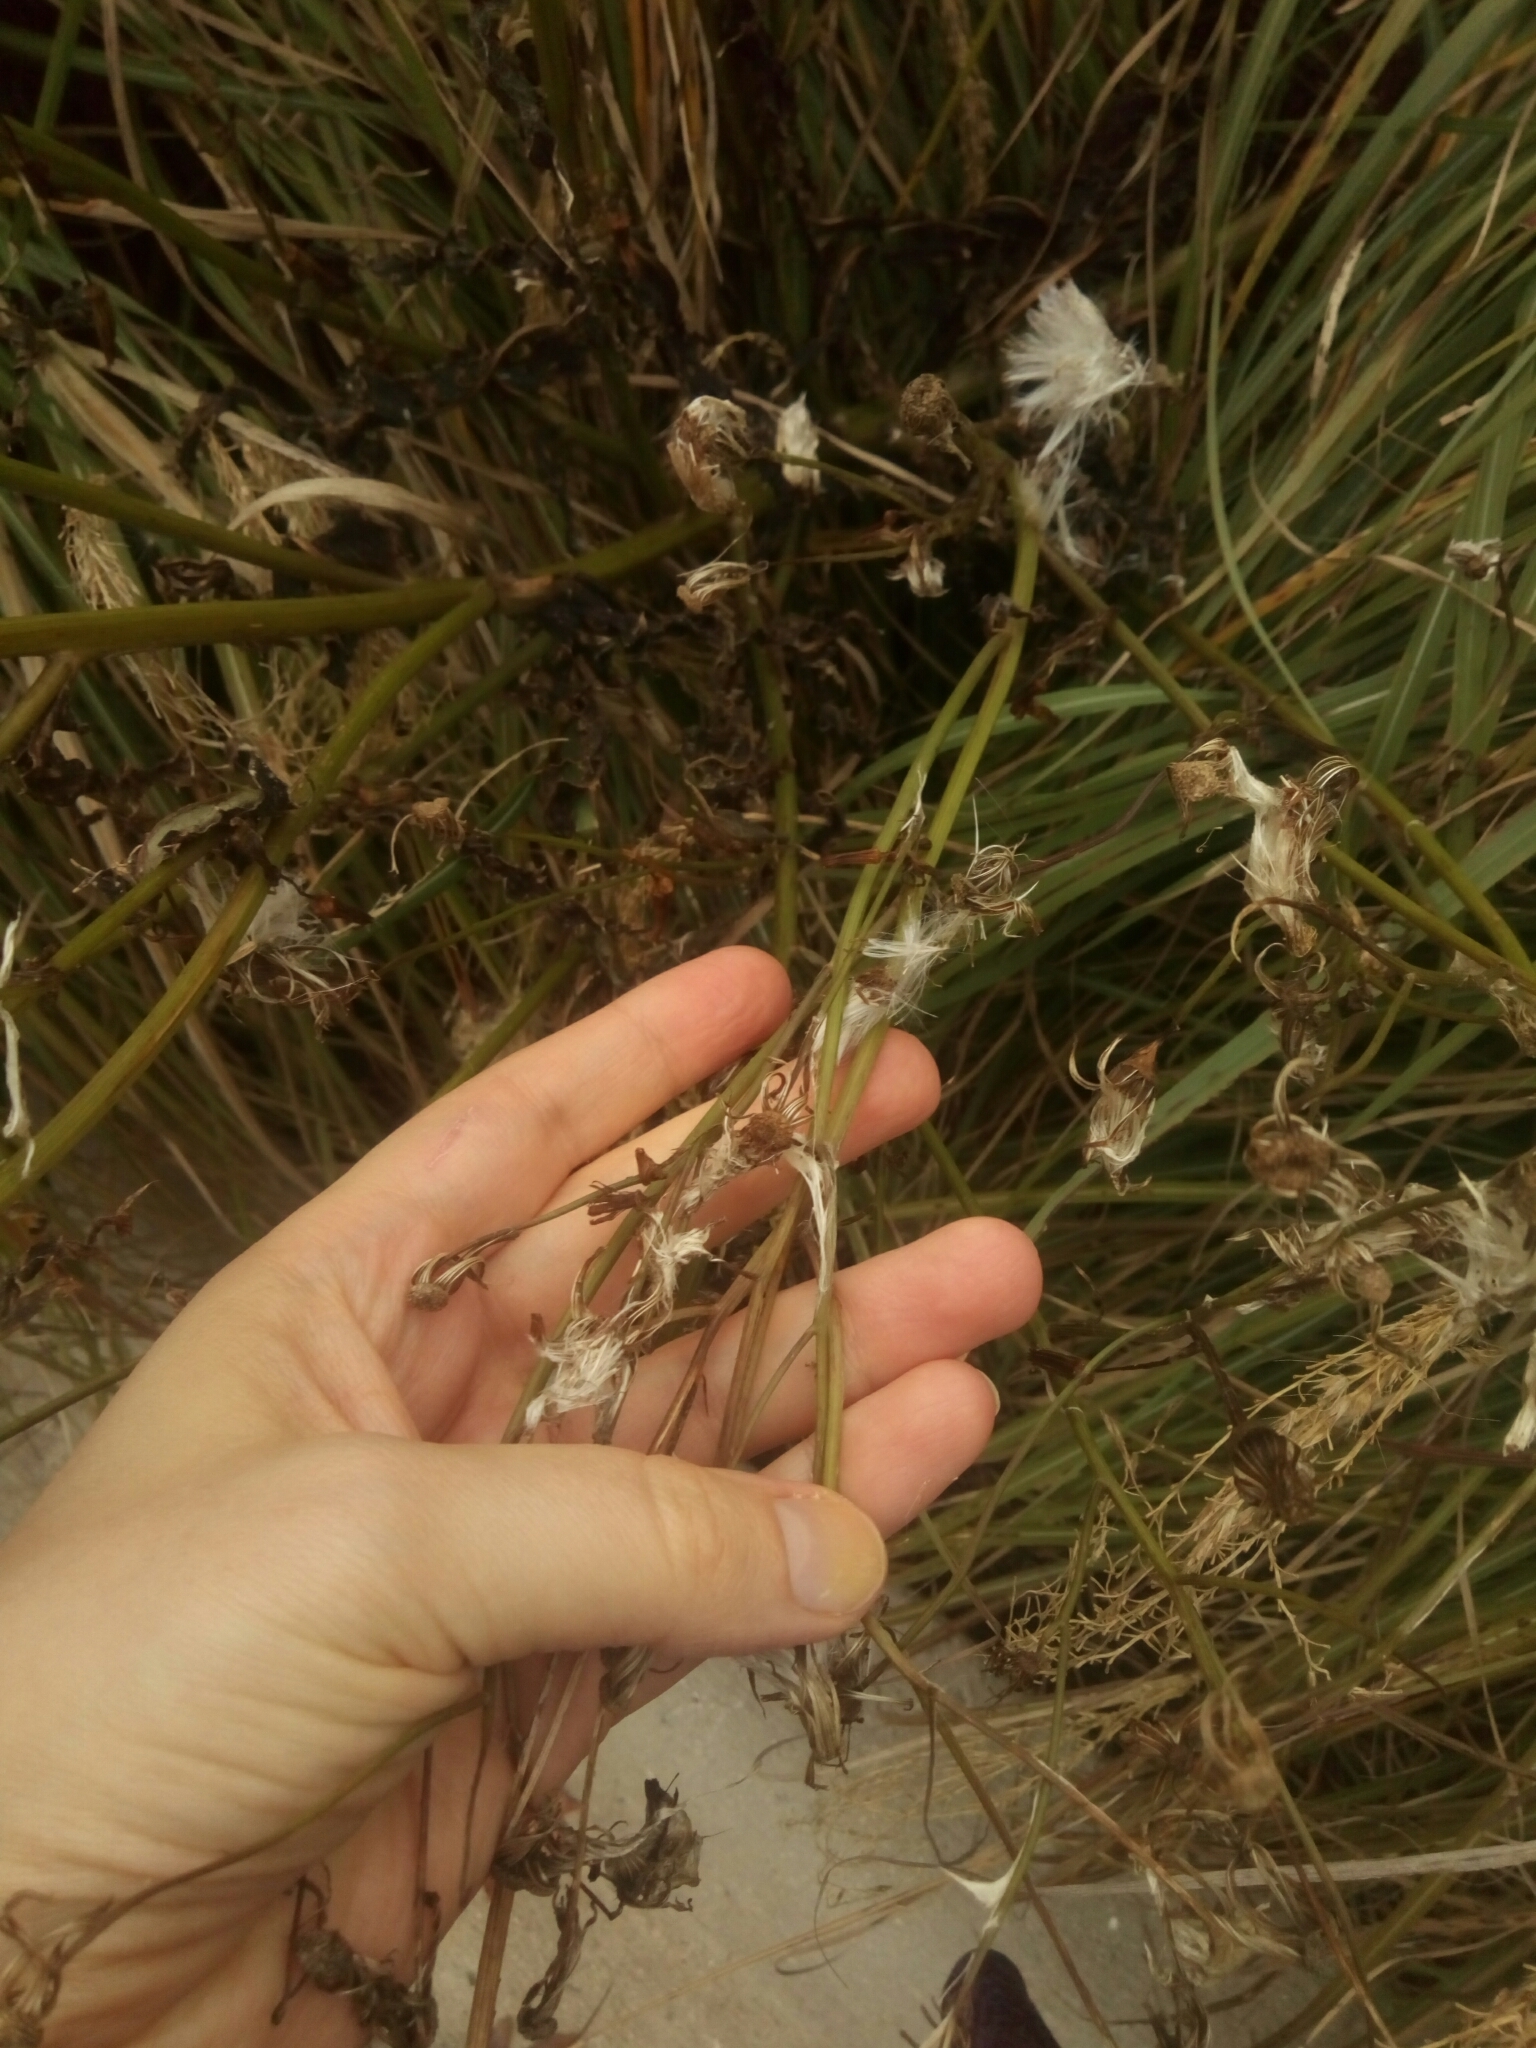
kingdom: Plantae
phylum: Tracheophyta
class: Magnoliopsida
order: Asterales
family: Asteraceae
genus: Erechtites
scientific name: Erechtites hieraciifolius
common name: American burnweed
